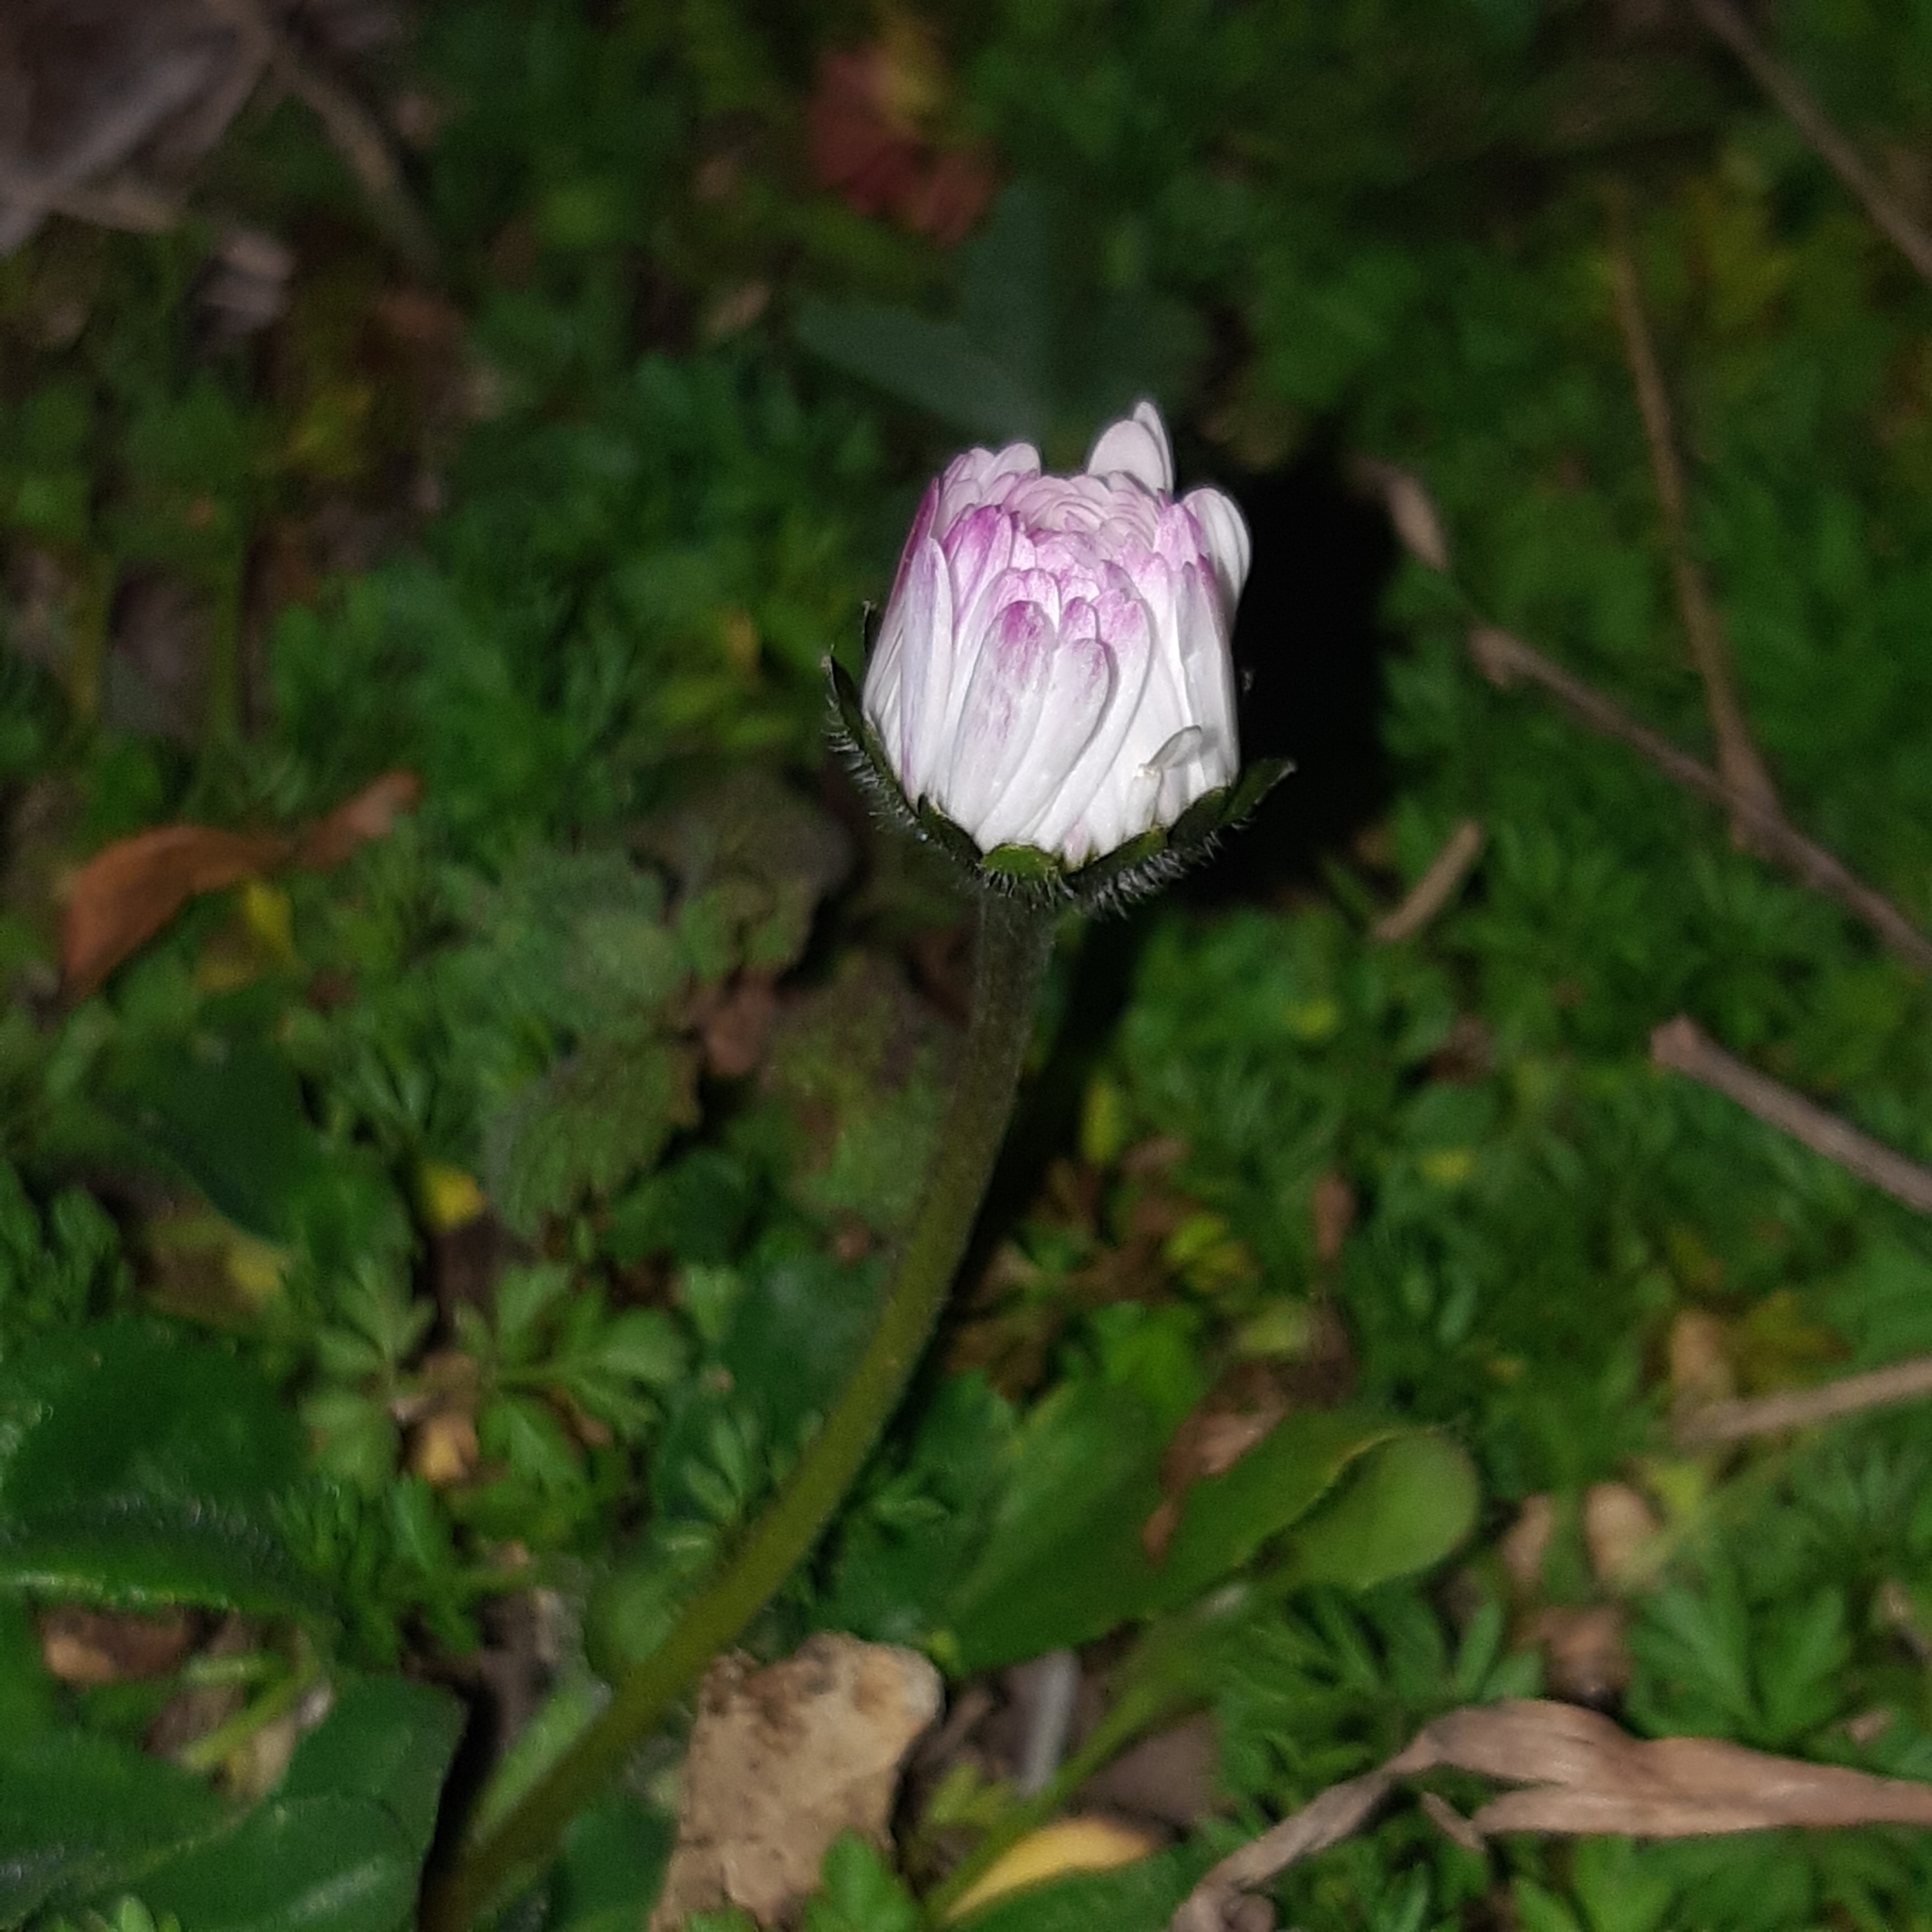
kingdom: Plantae
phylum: Tracheophyta
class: Magnoliopsida
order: Asterales
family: Asteraceae
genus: Bellis
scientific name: Bellis perennis
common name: Lawndaisy
